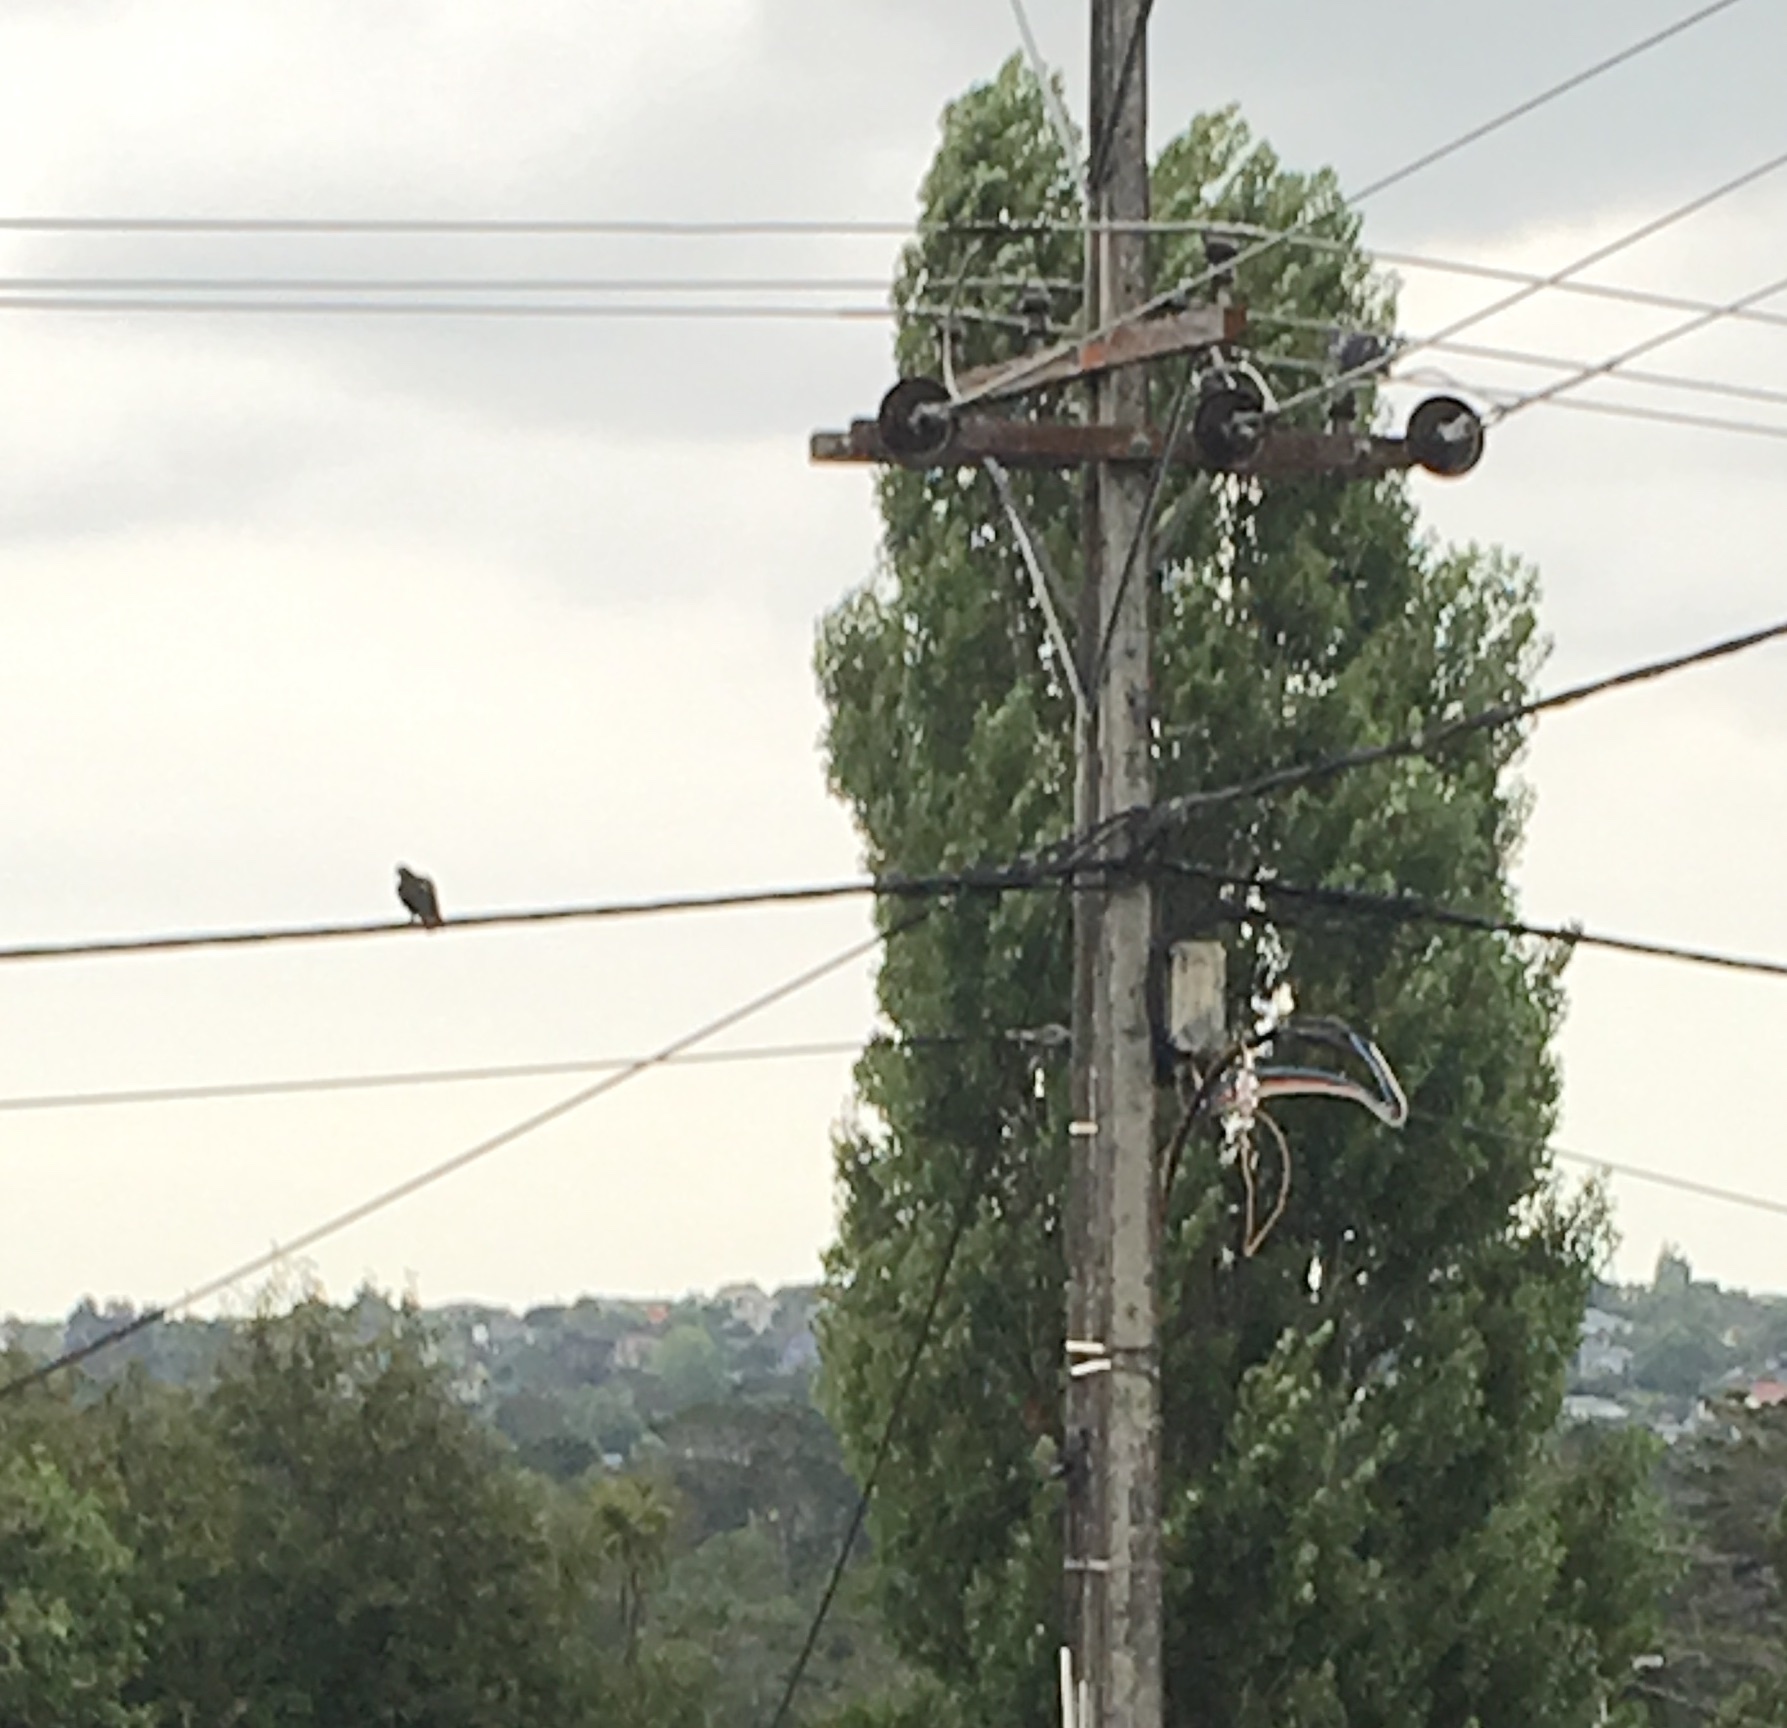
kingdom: Animalia
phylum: Chordata
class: Aves
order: Columbiformes
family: Columbidae
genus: Columba
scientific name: Columba livia
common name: Rock pigeon
